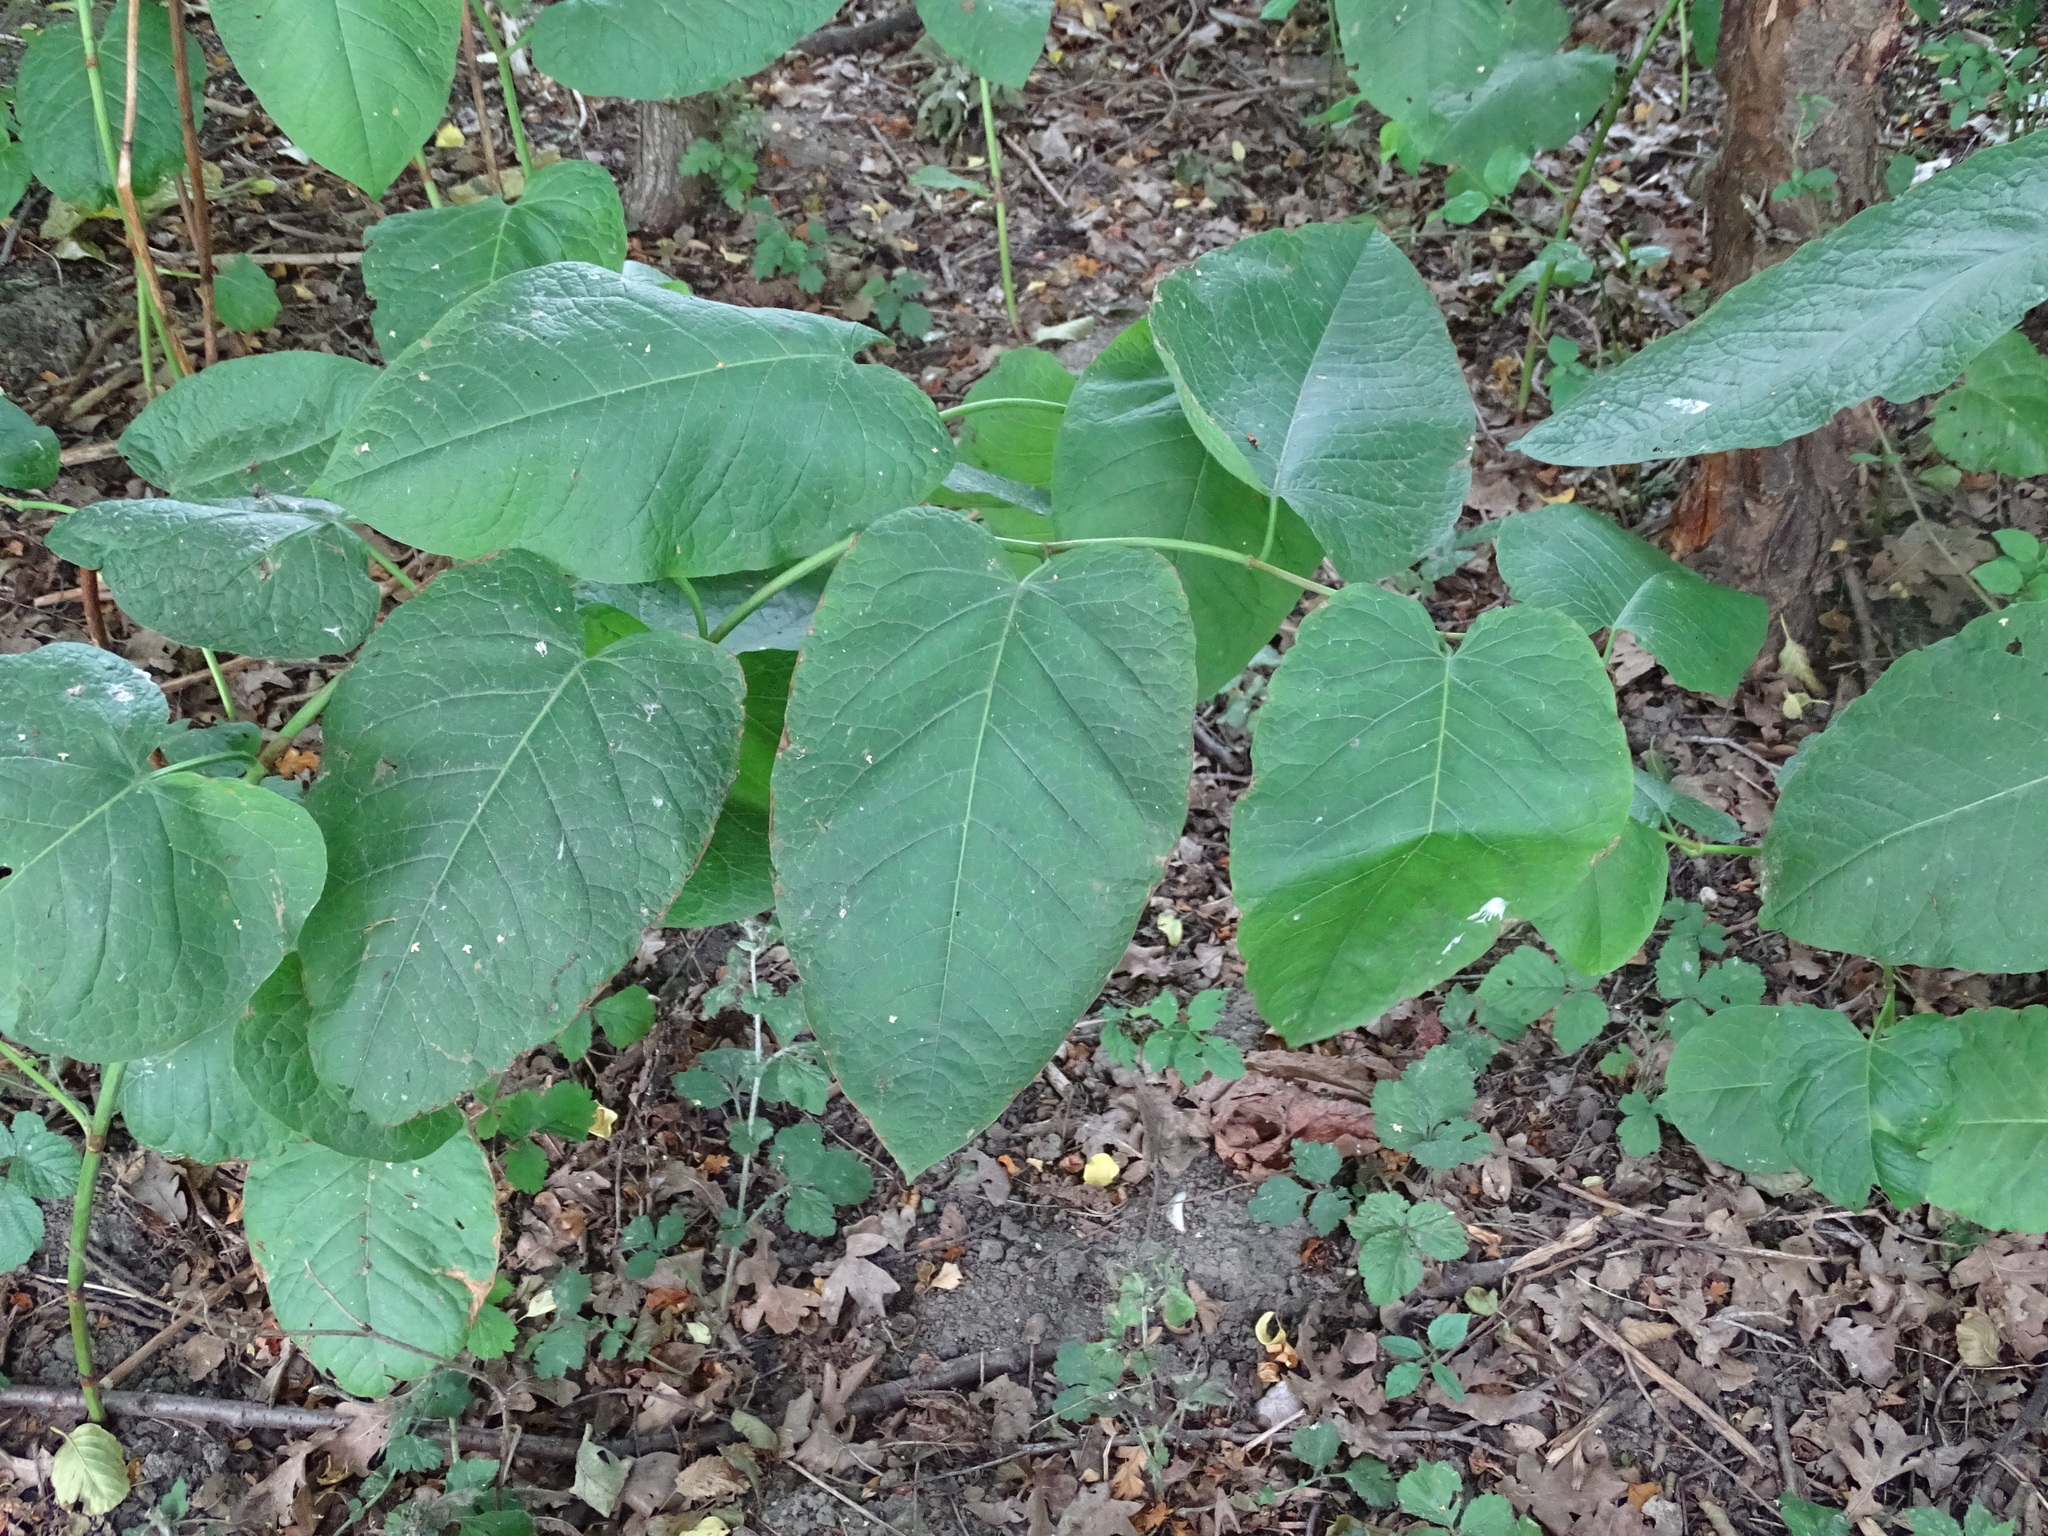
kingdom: Plantae
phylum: Tracheophyta
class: Magnoliopsida
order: Caryophyllales
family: Polygonaceae
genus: Reynoutria
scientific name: Reynoutria sachalinensis
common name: Giant knotweed
